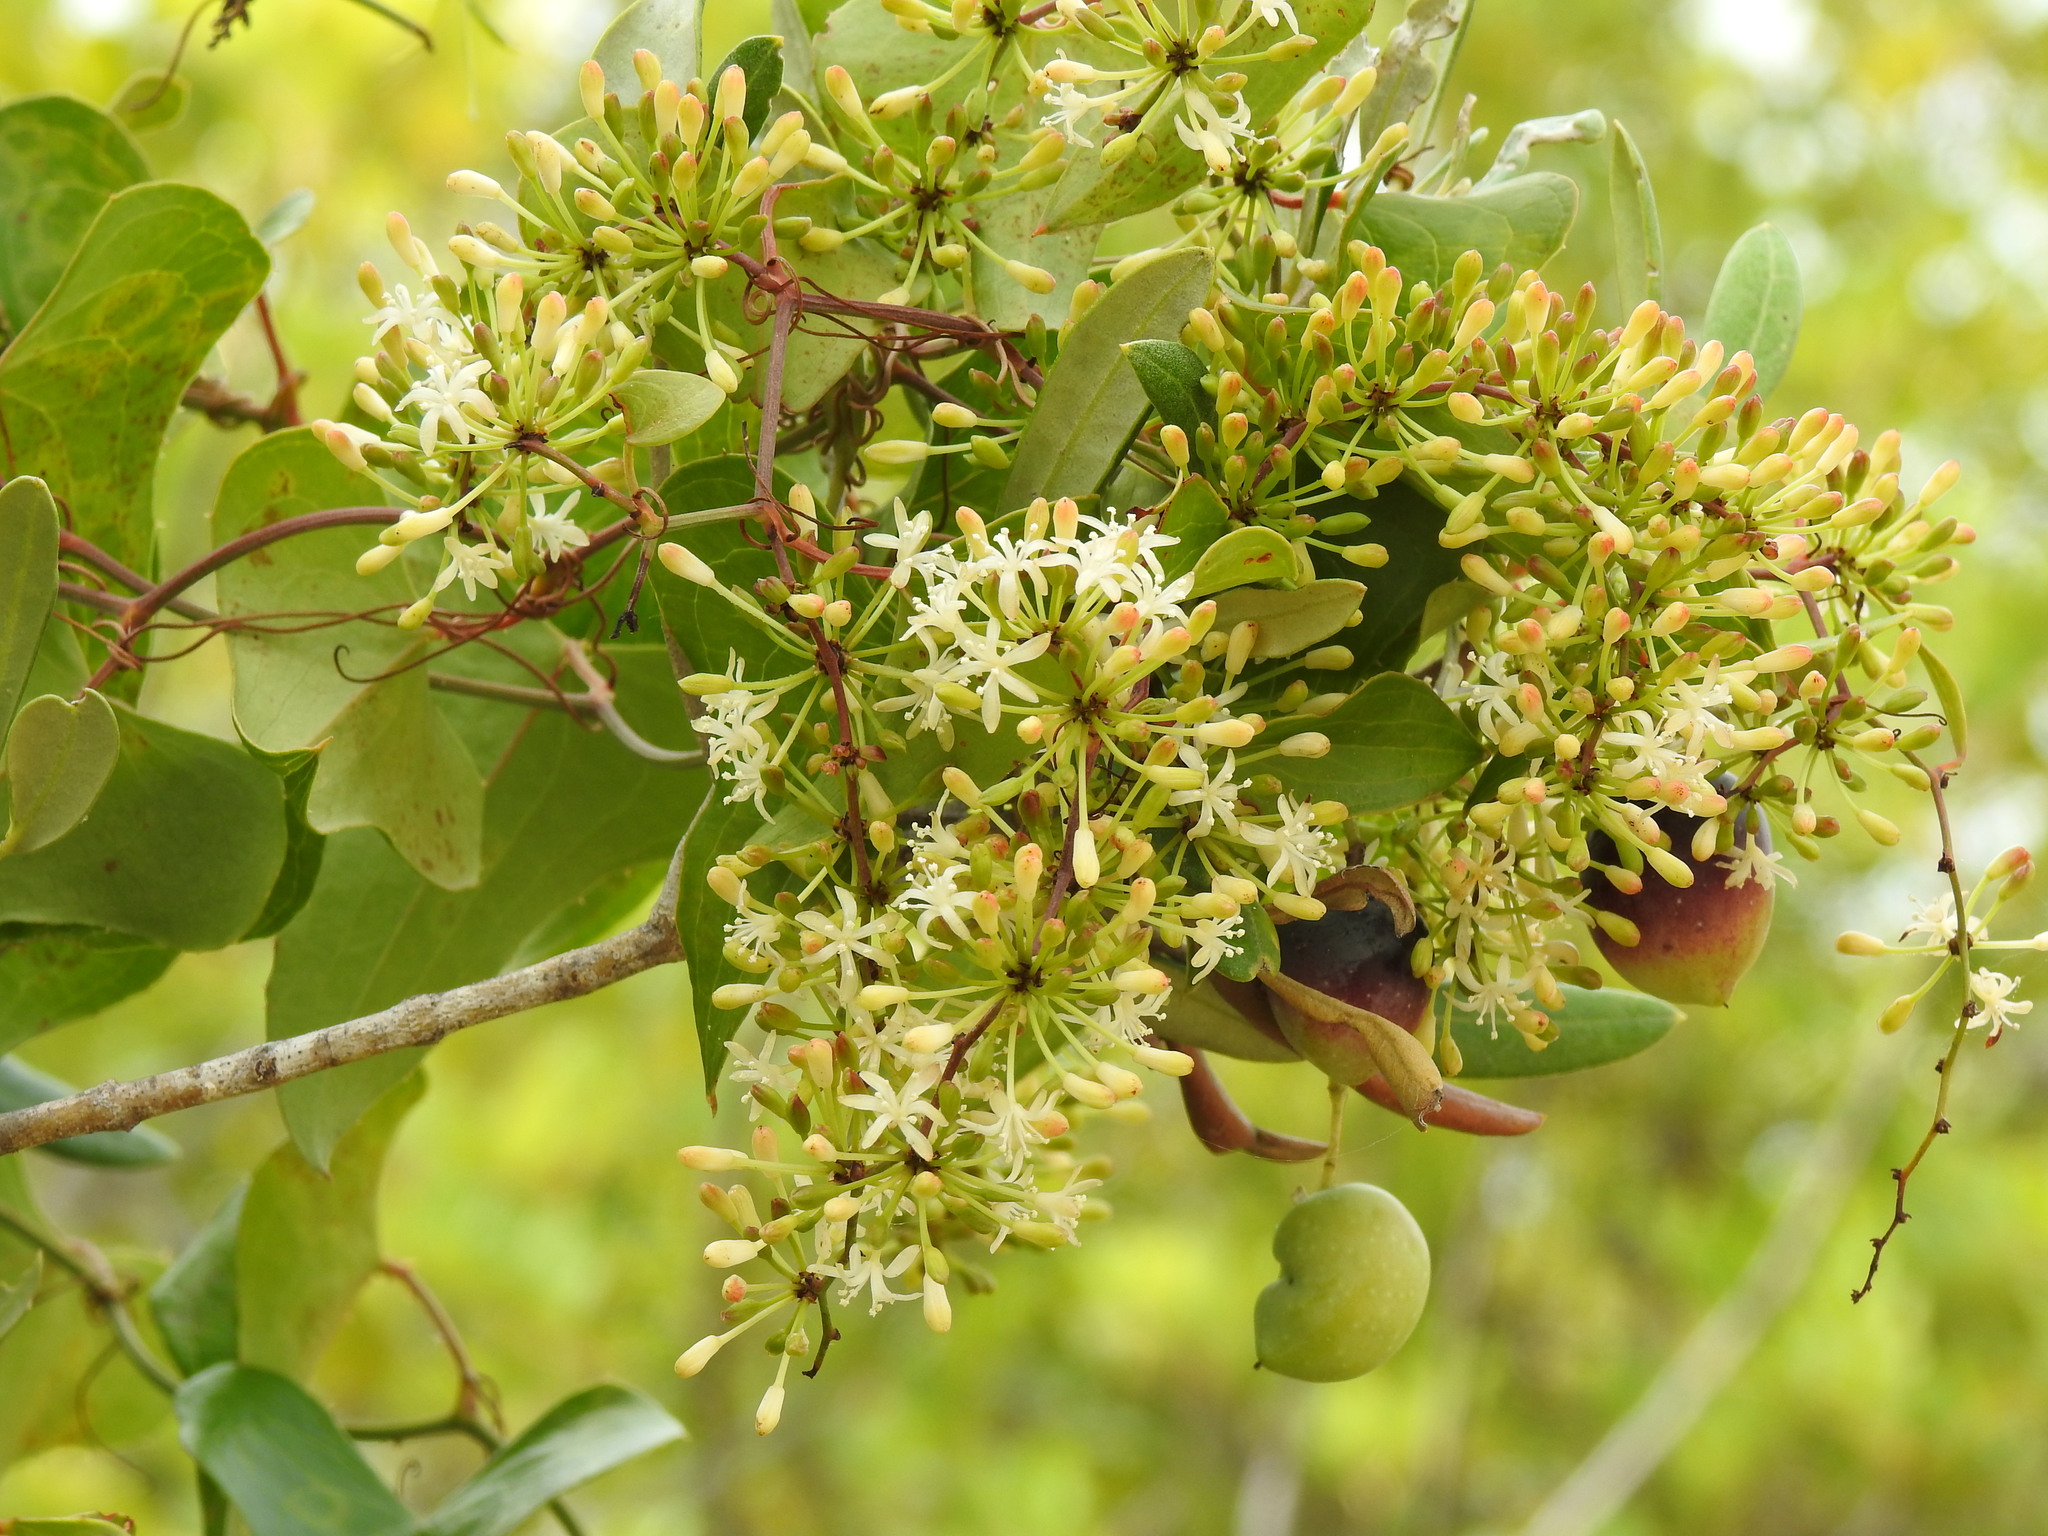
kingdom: Plantae
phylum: Tracheophyta
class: Liliopsida
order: Liliales
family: Smilacaceae
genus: Smilax
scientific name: Smilax aspera
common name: Common smilax
